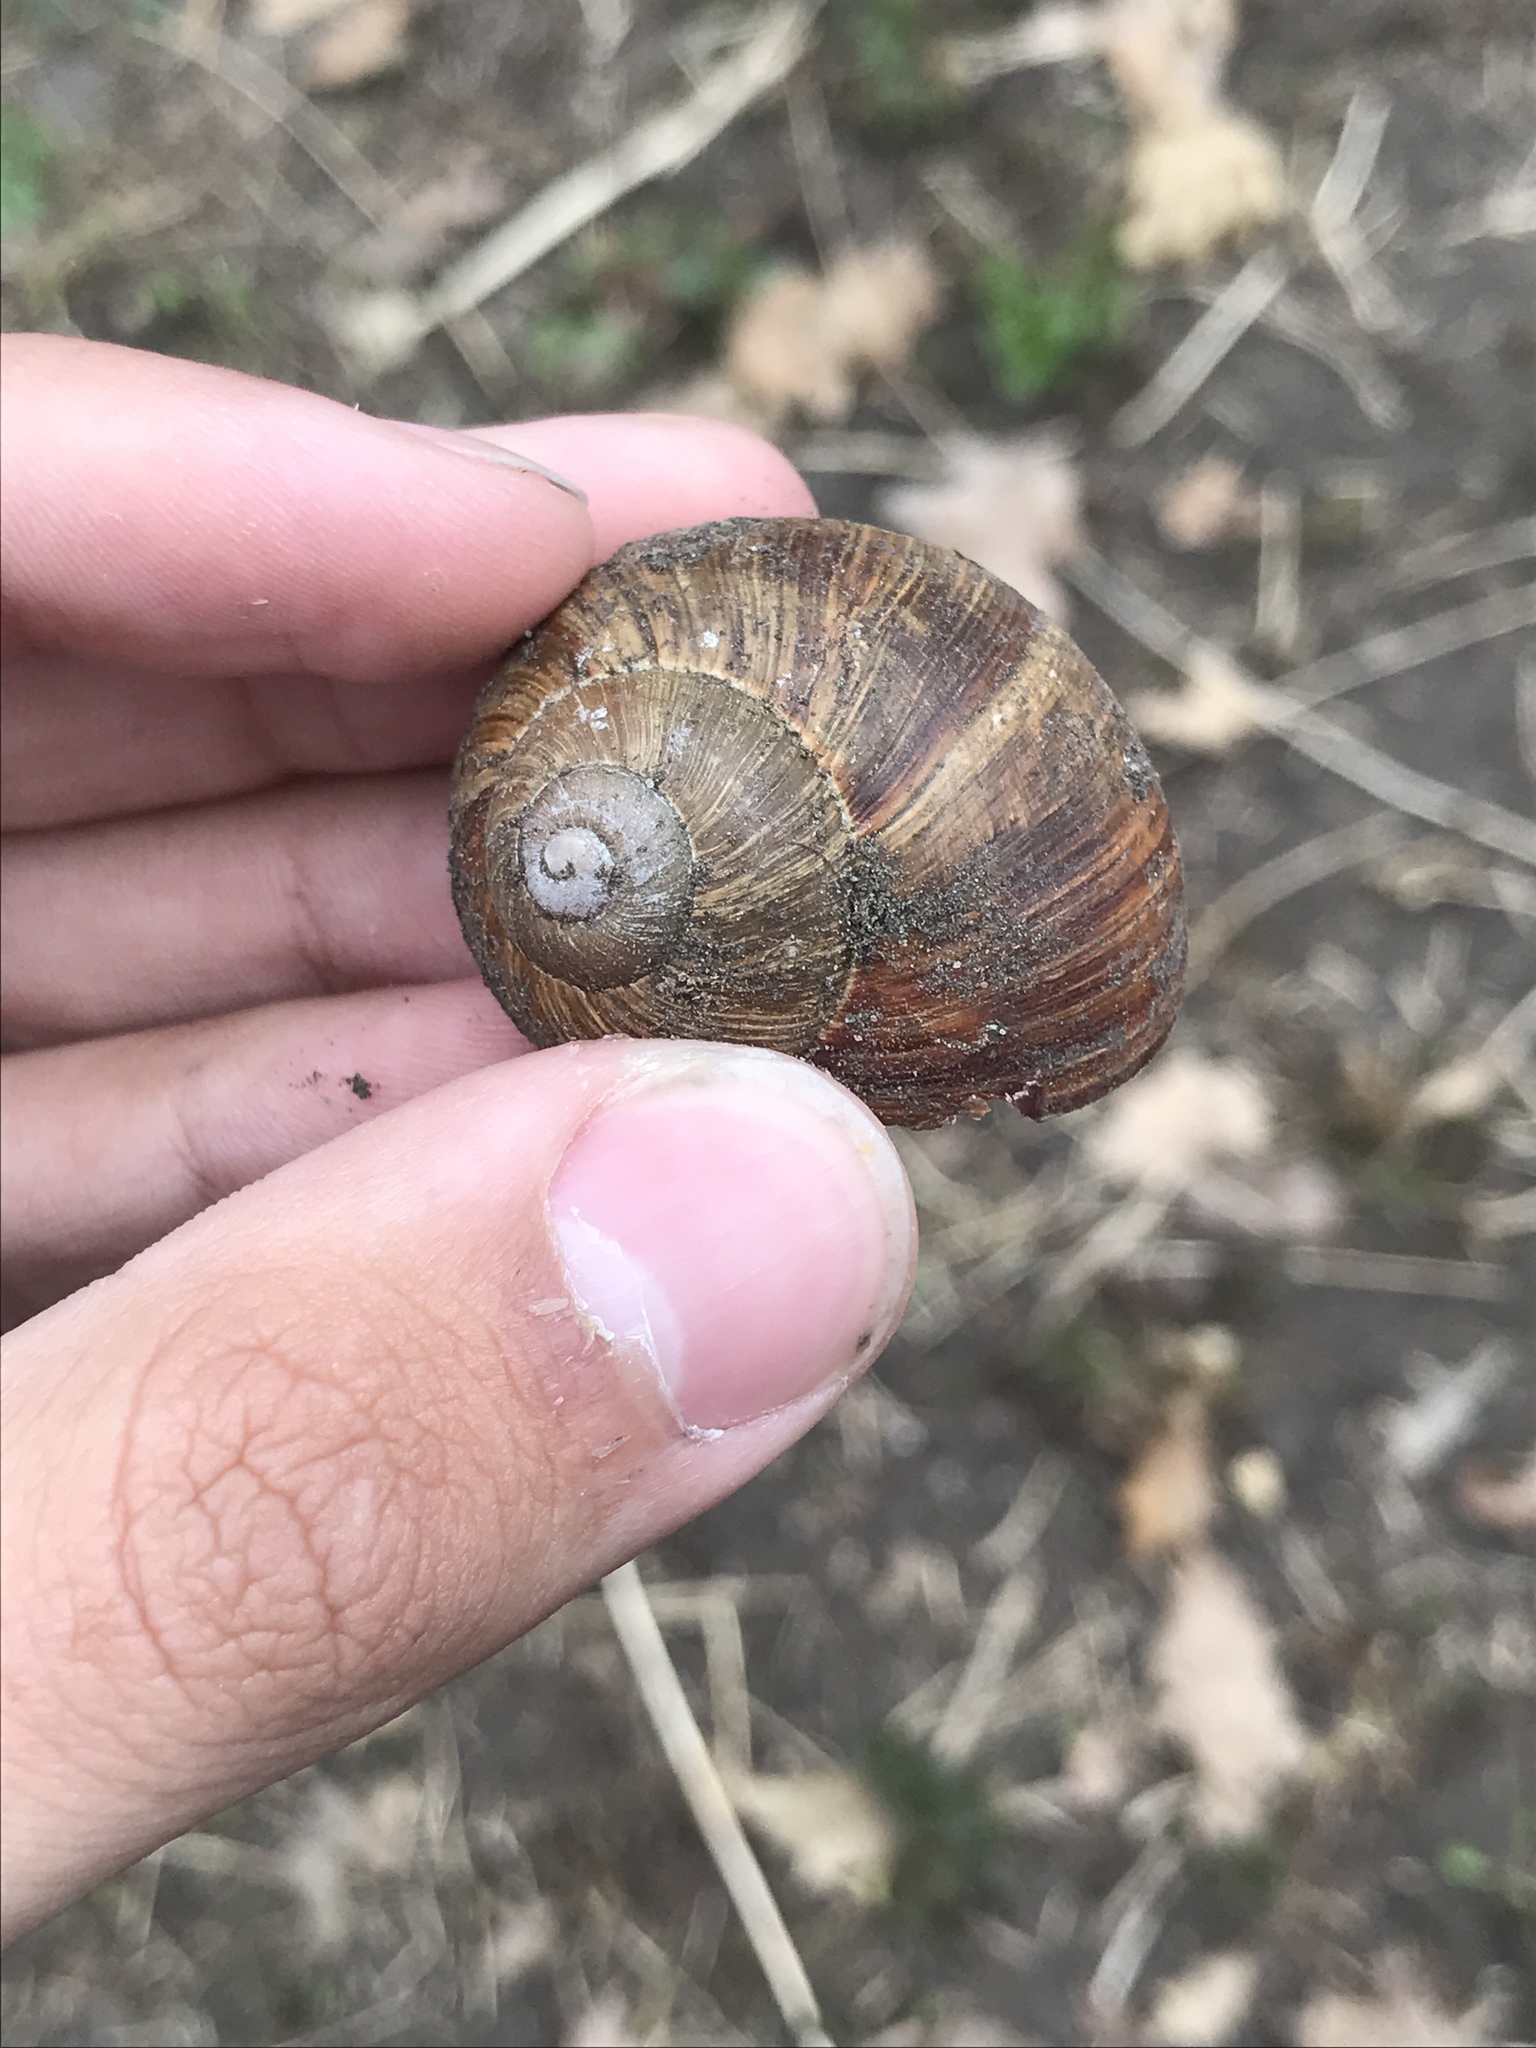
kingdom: Animalia
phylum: Mollusca
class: Gastropoda
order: Stylommatophora
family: Helicidae
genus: Helix
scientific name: Helix pomatia
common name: Roman snail
